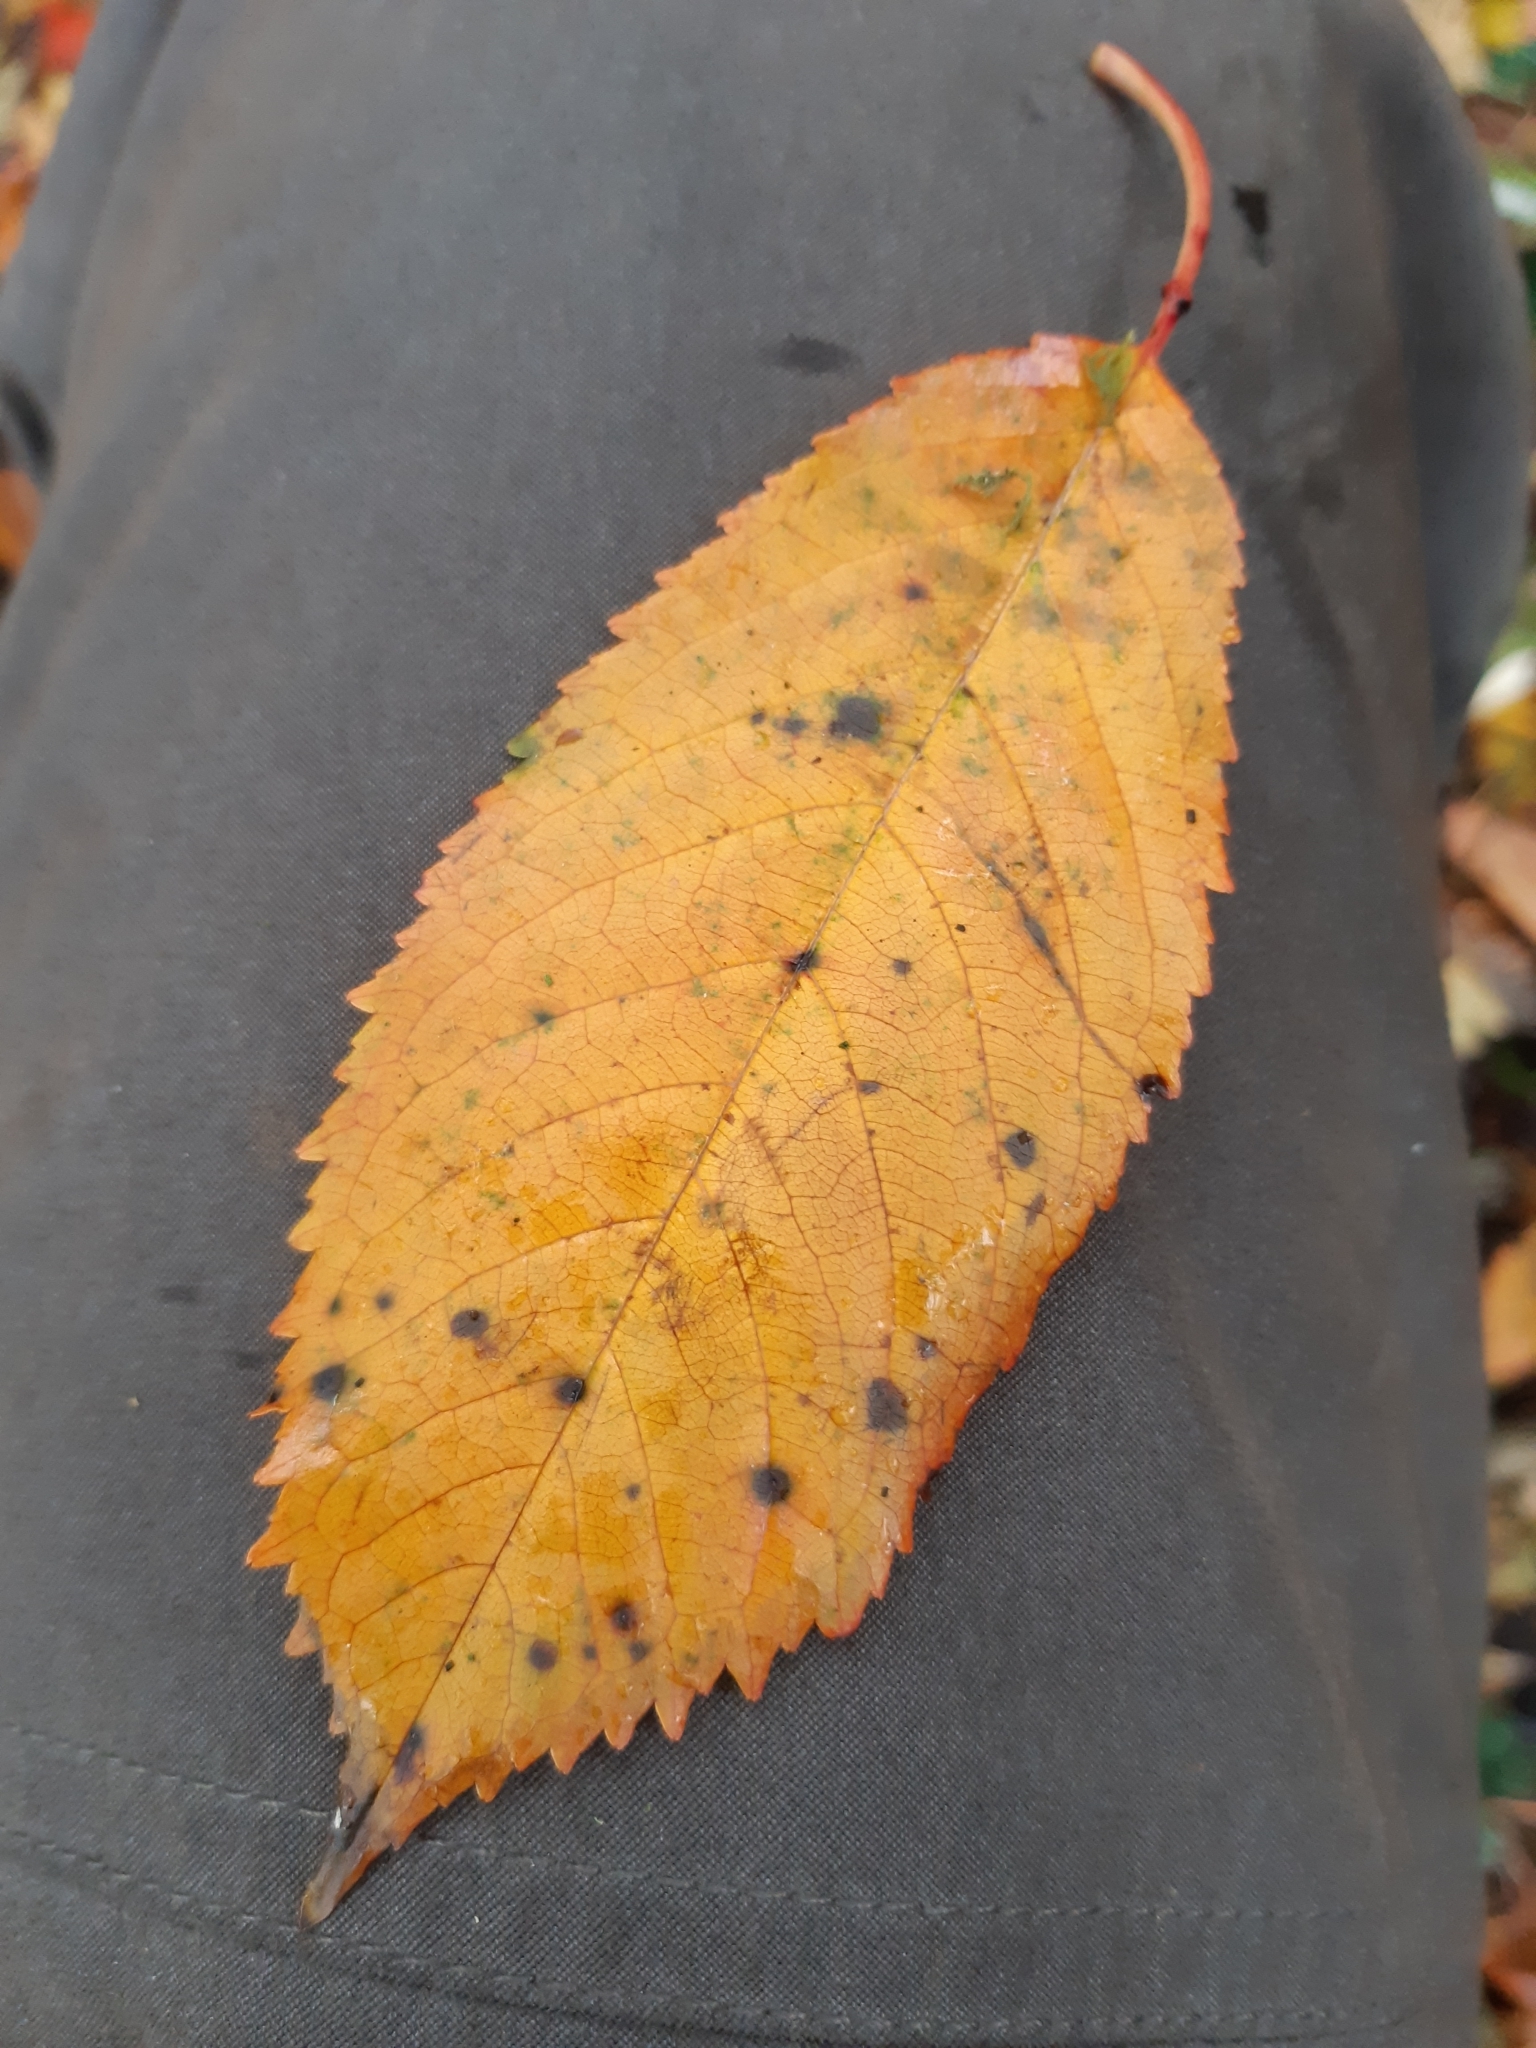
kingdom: Plantae
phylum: Tracheophyta
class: Magnoliopsida
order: Rosales
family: Rosaceae
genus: Prunus
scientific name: Prunus avium
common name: Sweet cherry
